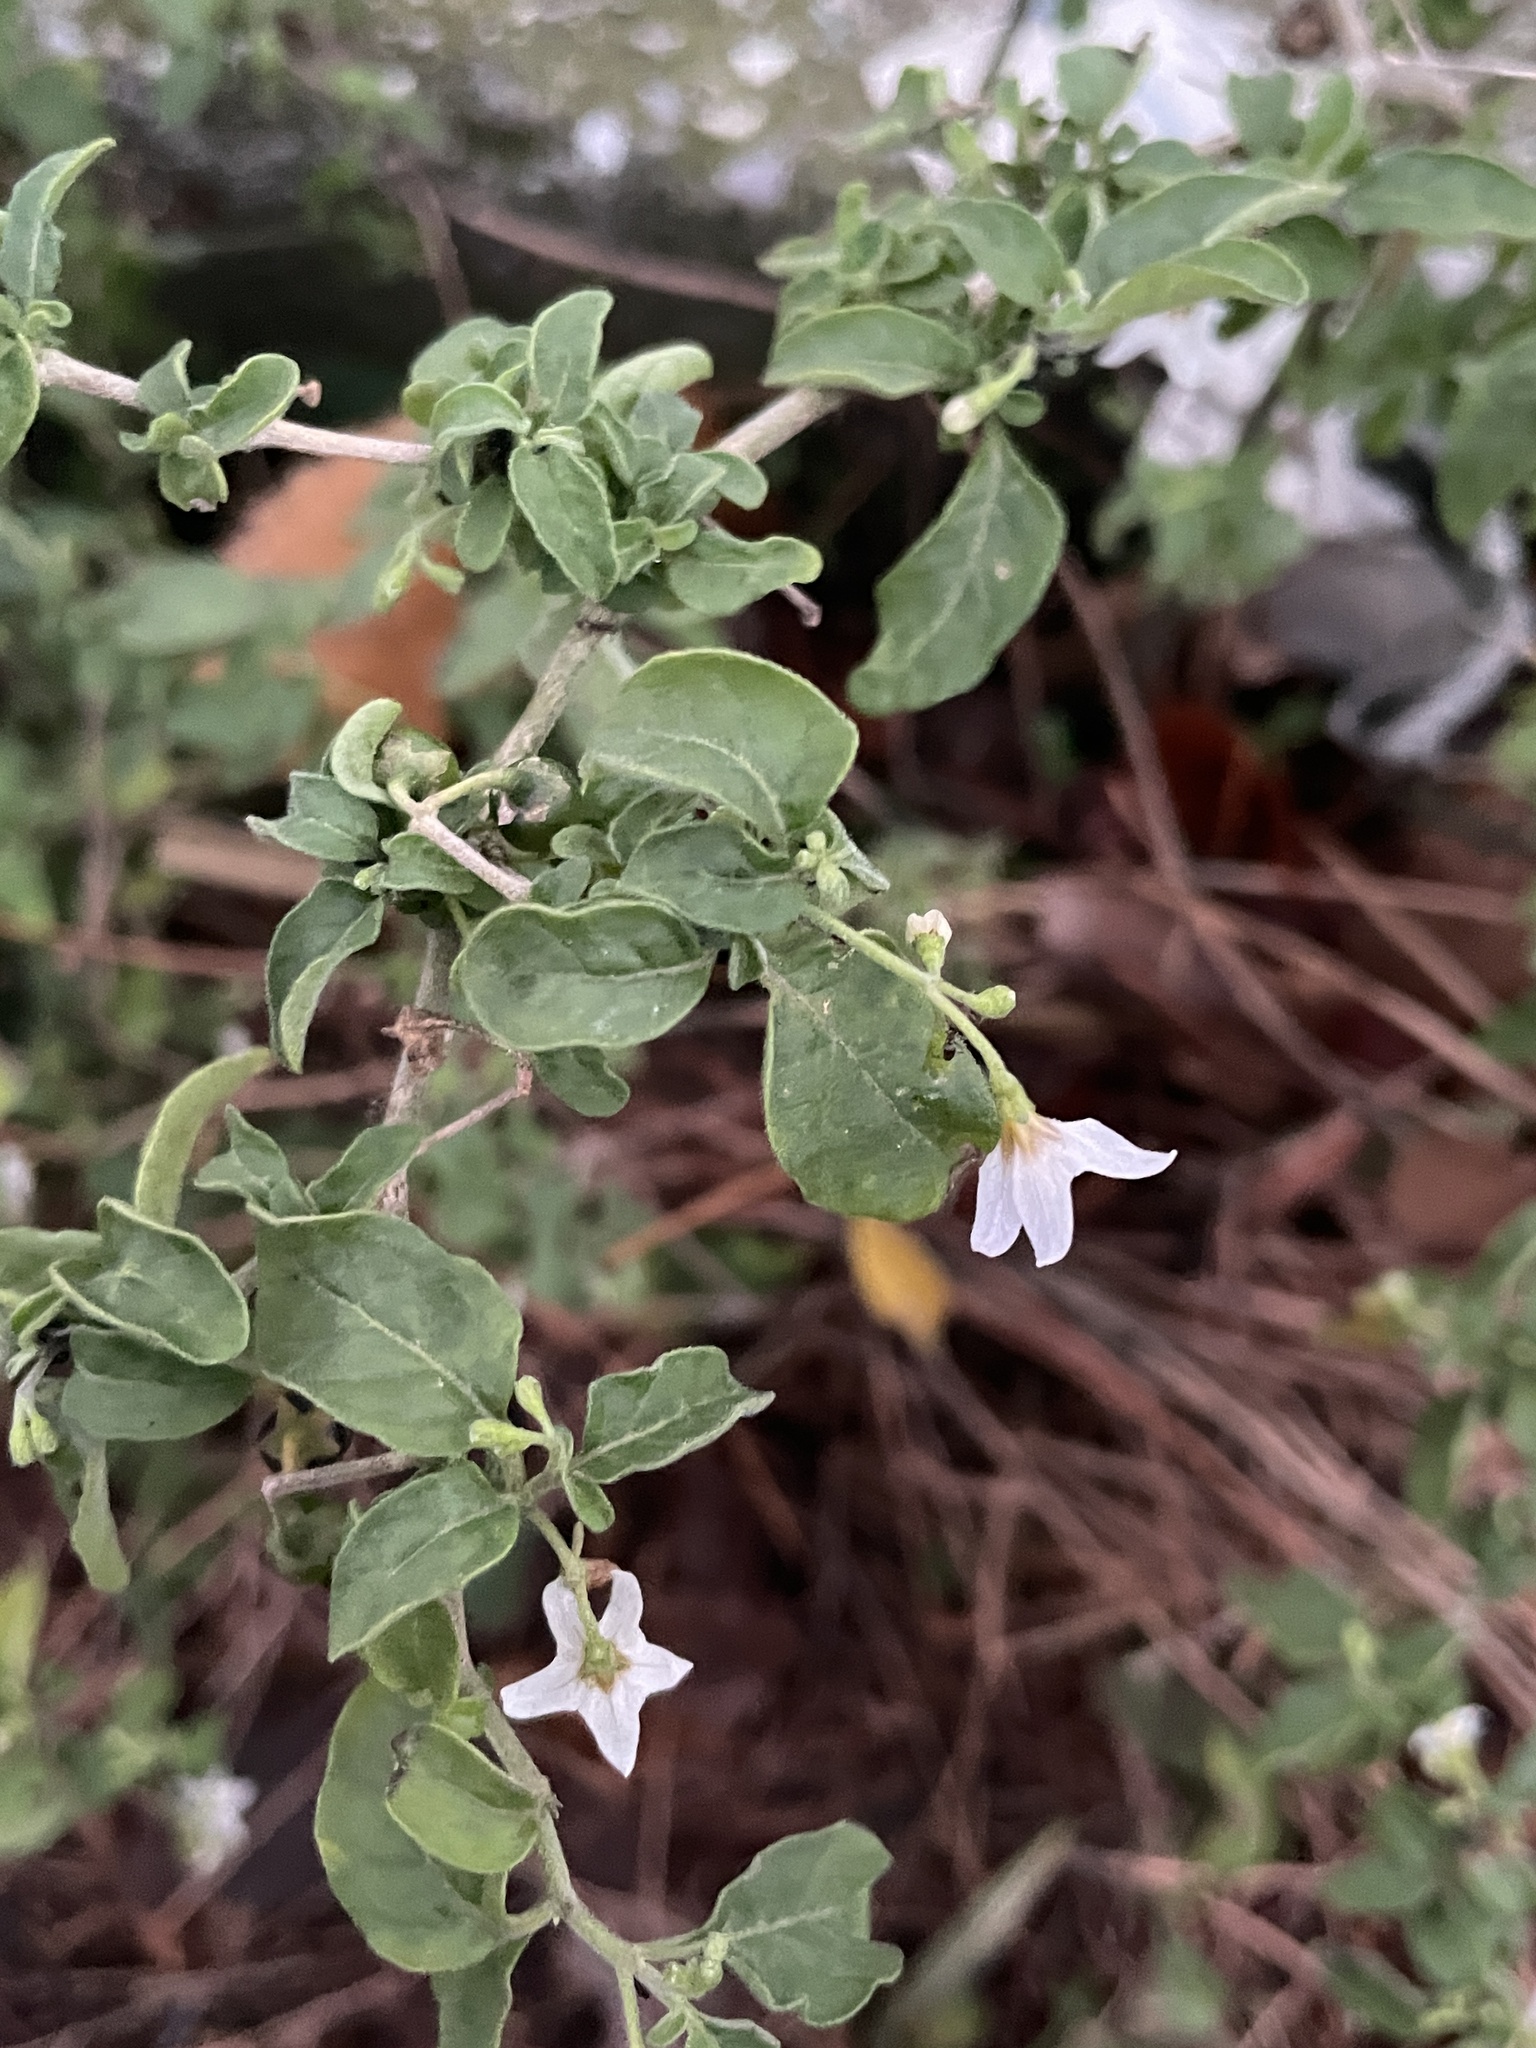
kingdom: Plantae
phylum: Tracheophyta
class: Magnoliopsida
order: Solanales
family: Solanaceae
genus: Solanum
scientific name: Solanum chenopodioides
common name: Tall nightshade
